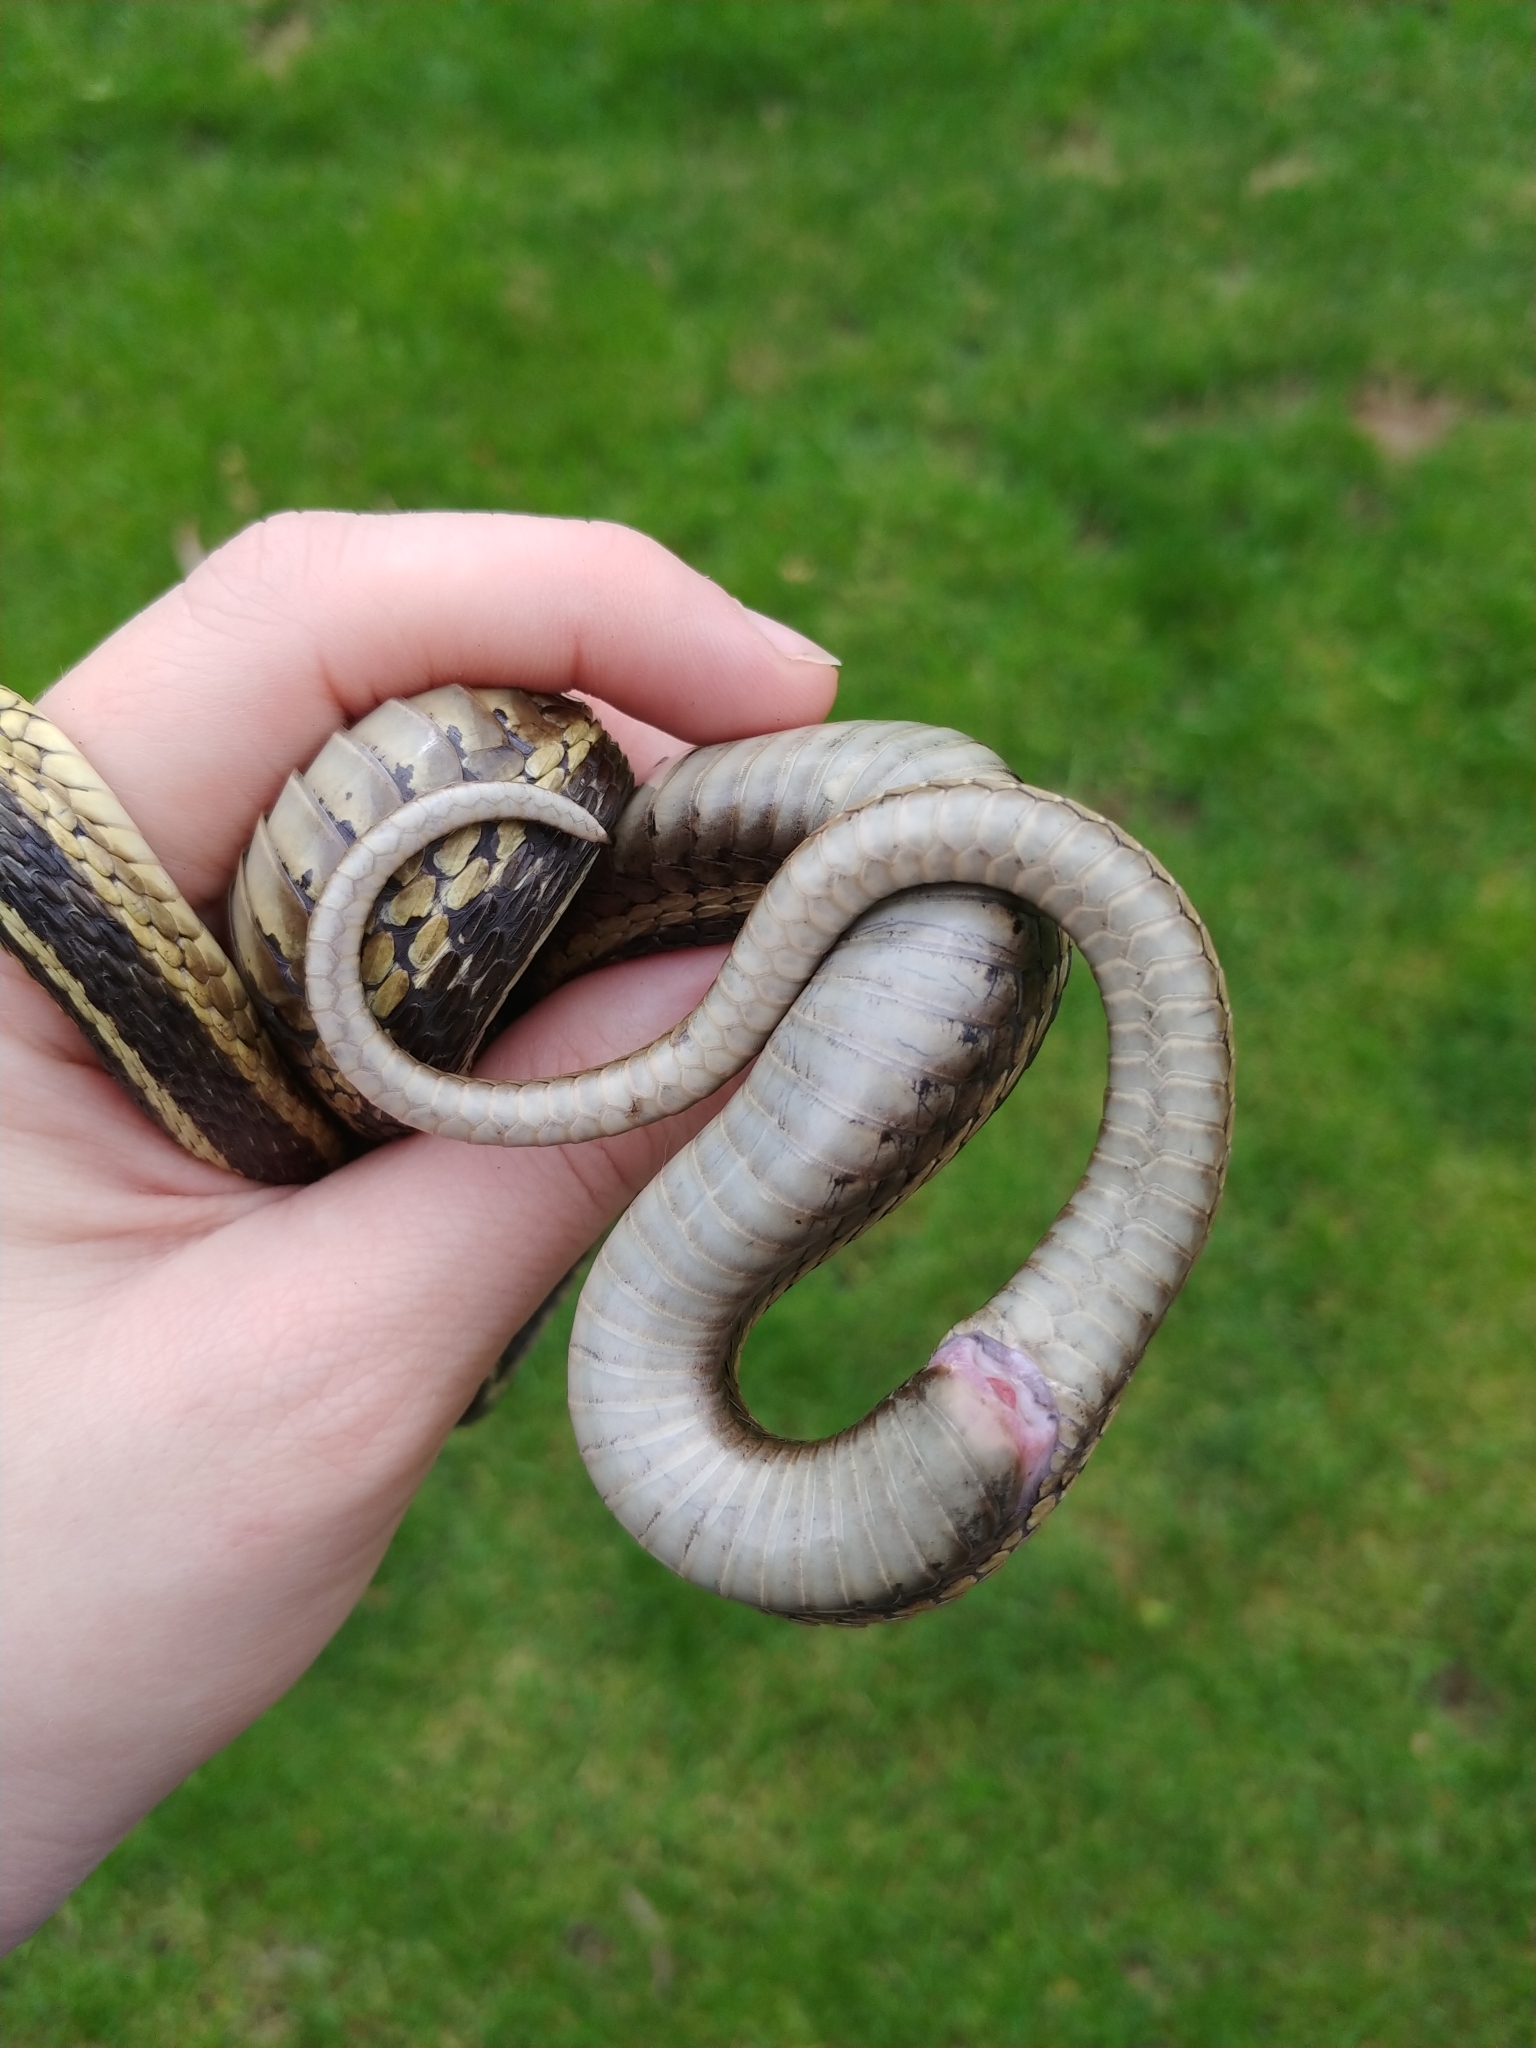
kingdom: Animalia
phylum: Chordata
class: Squamata
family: Colubridae
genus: Thamnophis
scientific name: Thamnophis sirtalis
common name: Common garter snake
